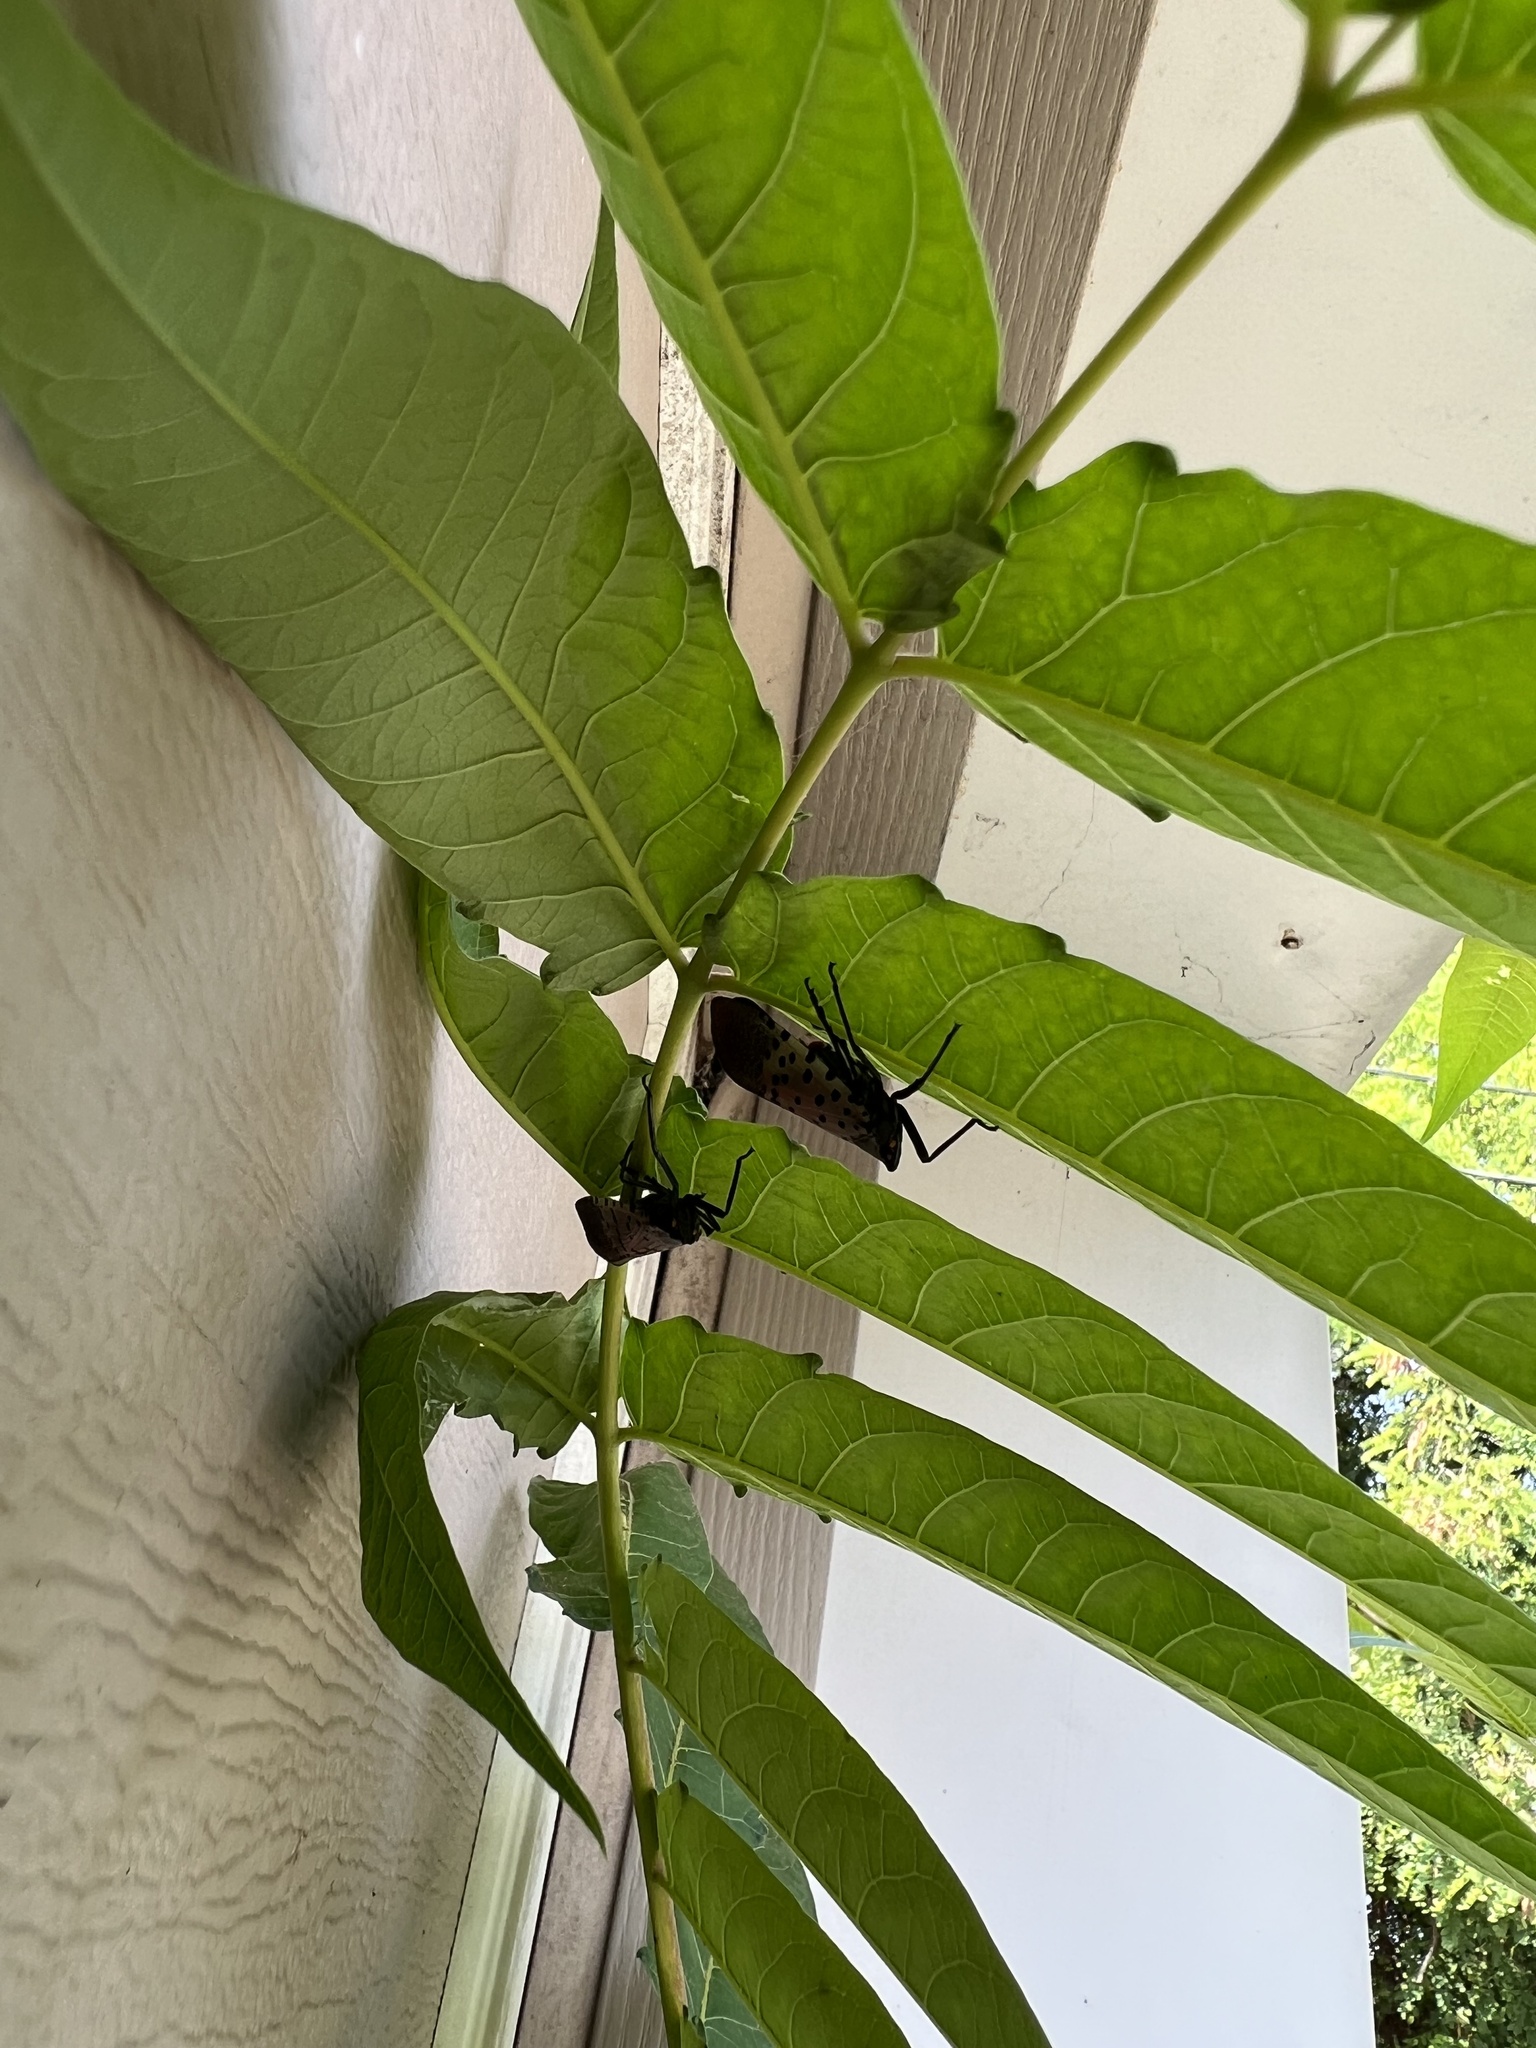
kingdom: Animalia
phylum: Arthropoda
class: Insecta
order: Hemiptera
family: Fulgoridae
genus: Lycorma
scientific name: Lycorma delicatula
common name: Spotted lanternfly
